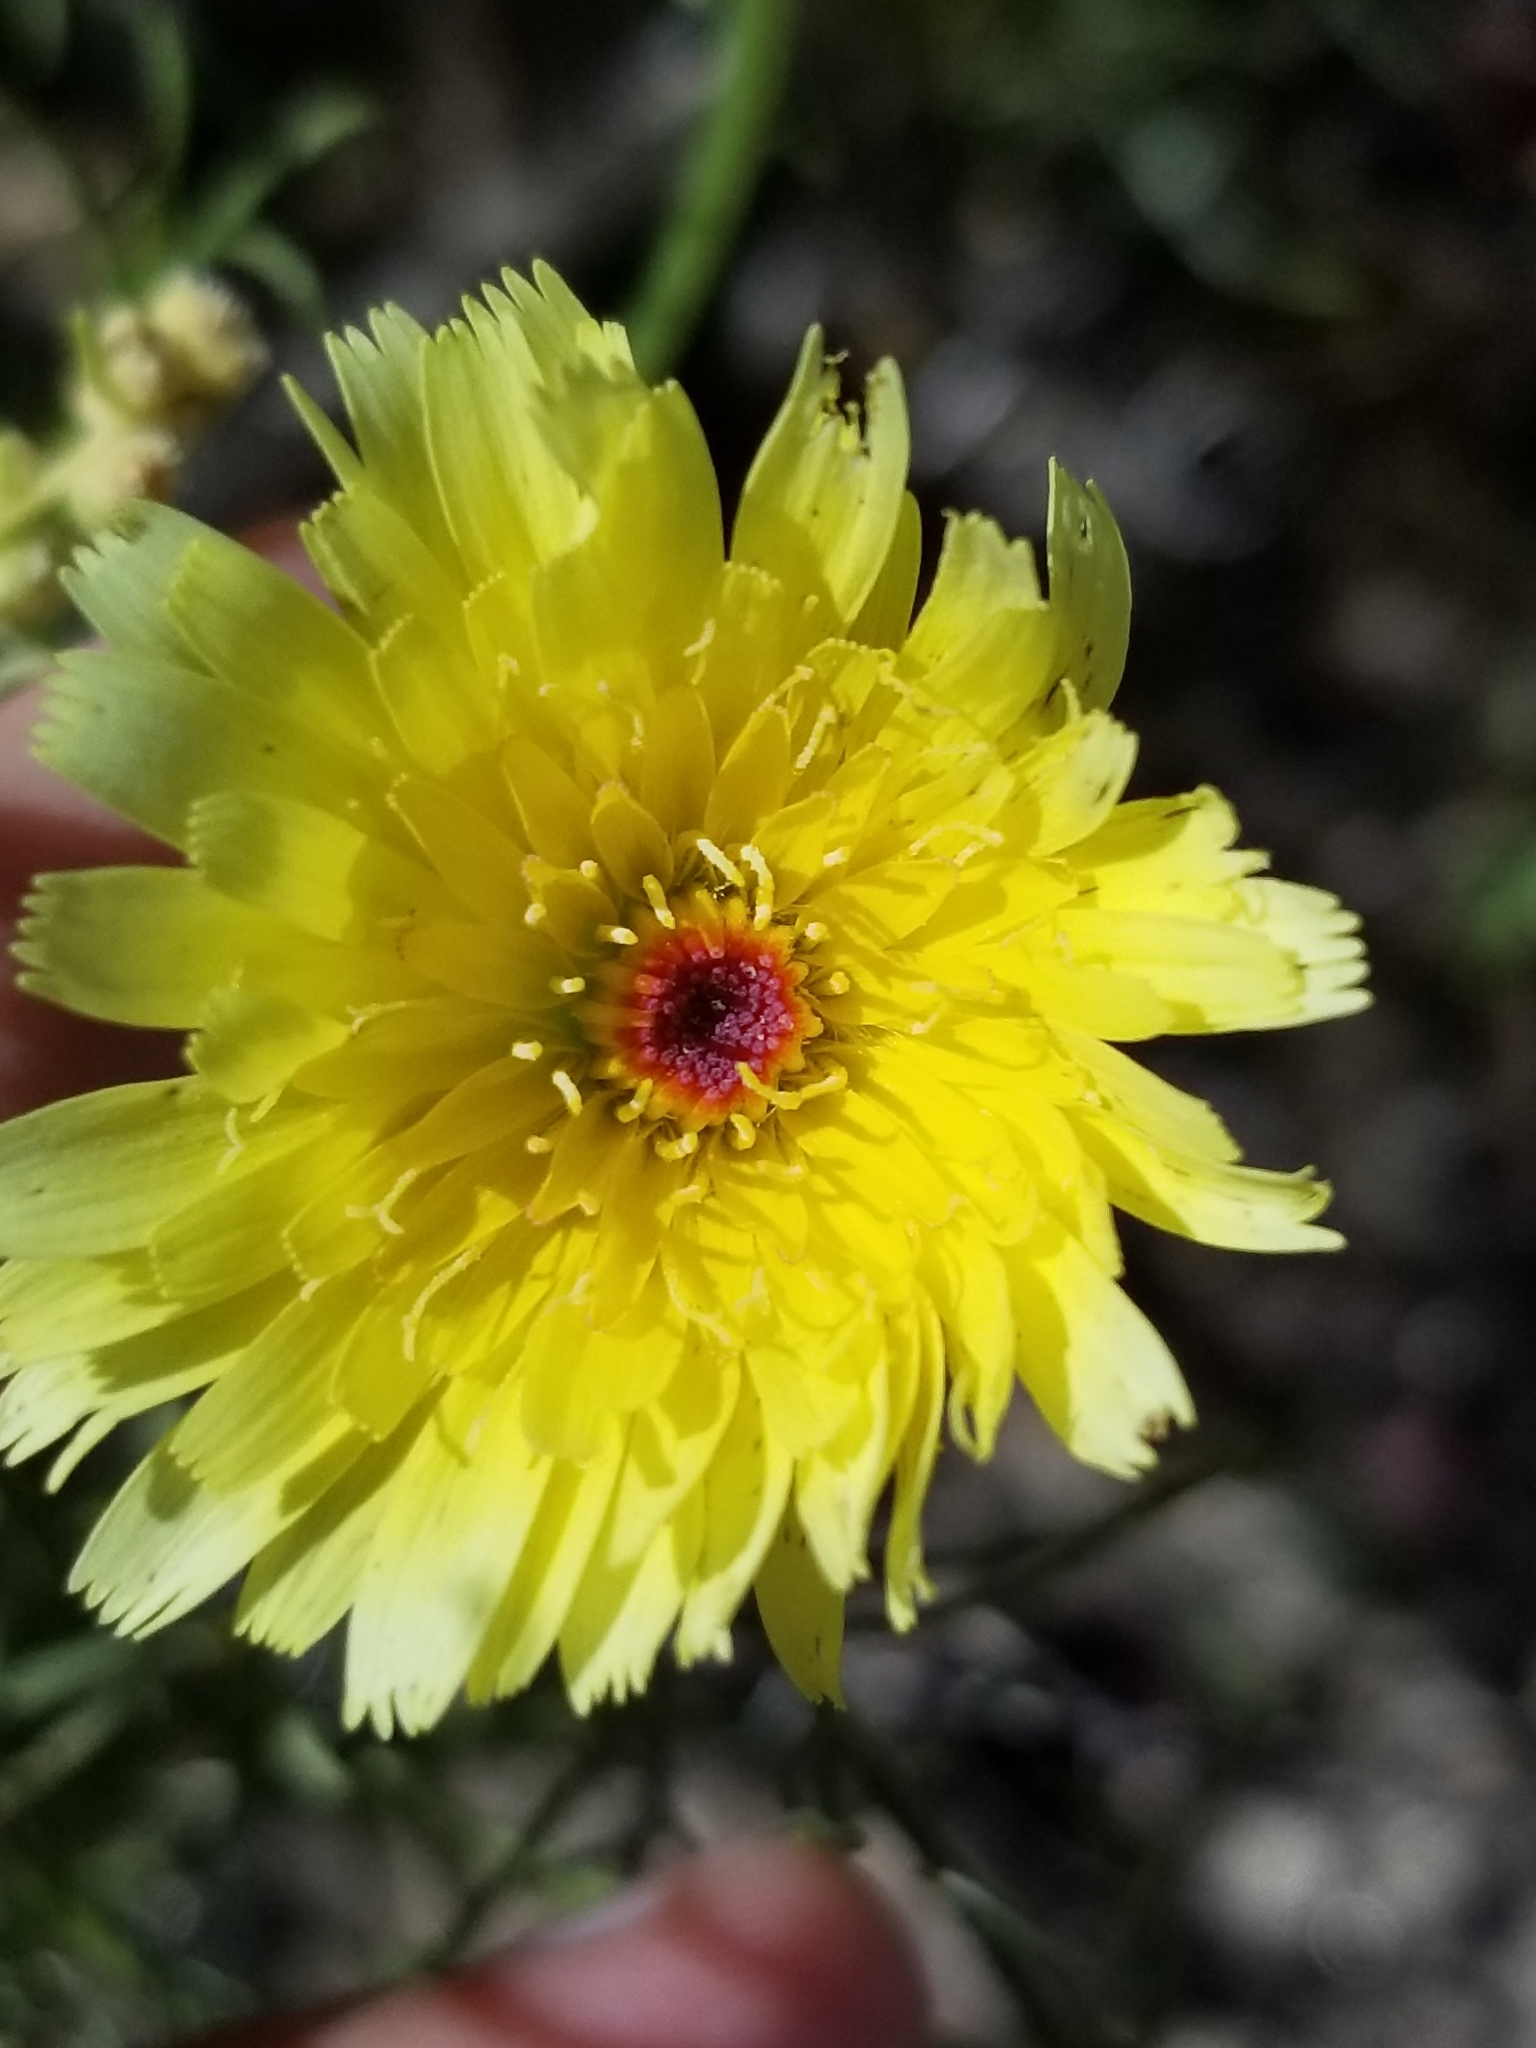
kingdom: Plantae
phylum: Tracheophyta
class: Magnoliopsida
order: Asterales
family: Asteraceae
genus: Malacothrix
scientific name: Malacothrix glabrata
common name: Smooth desert-dandelion
